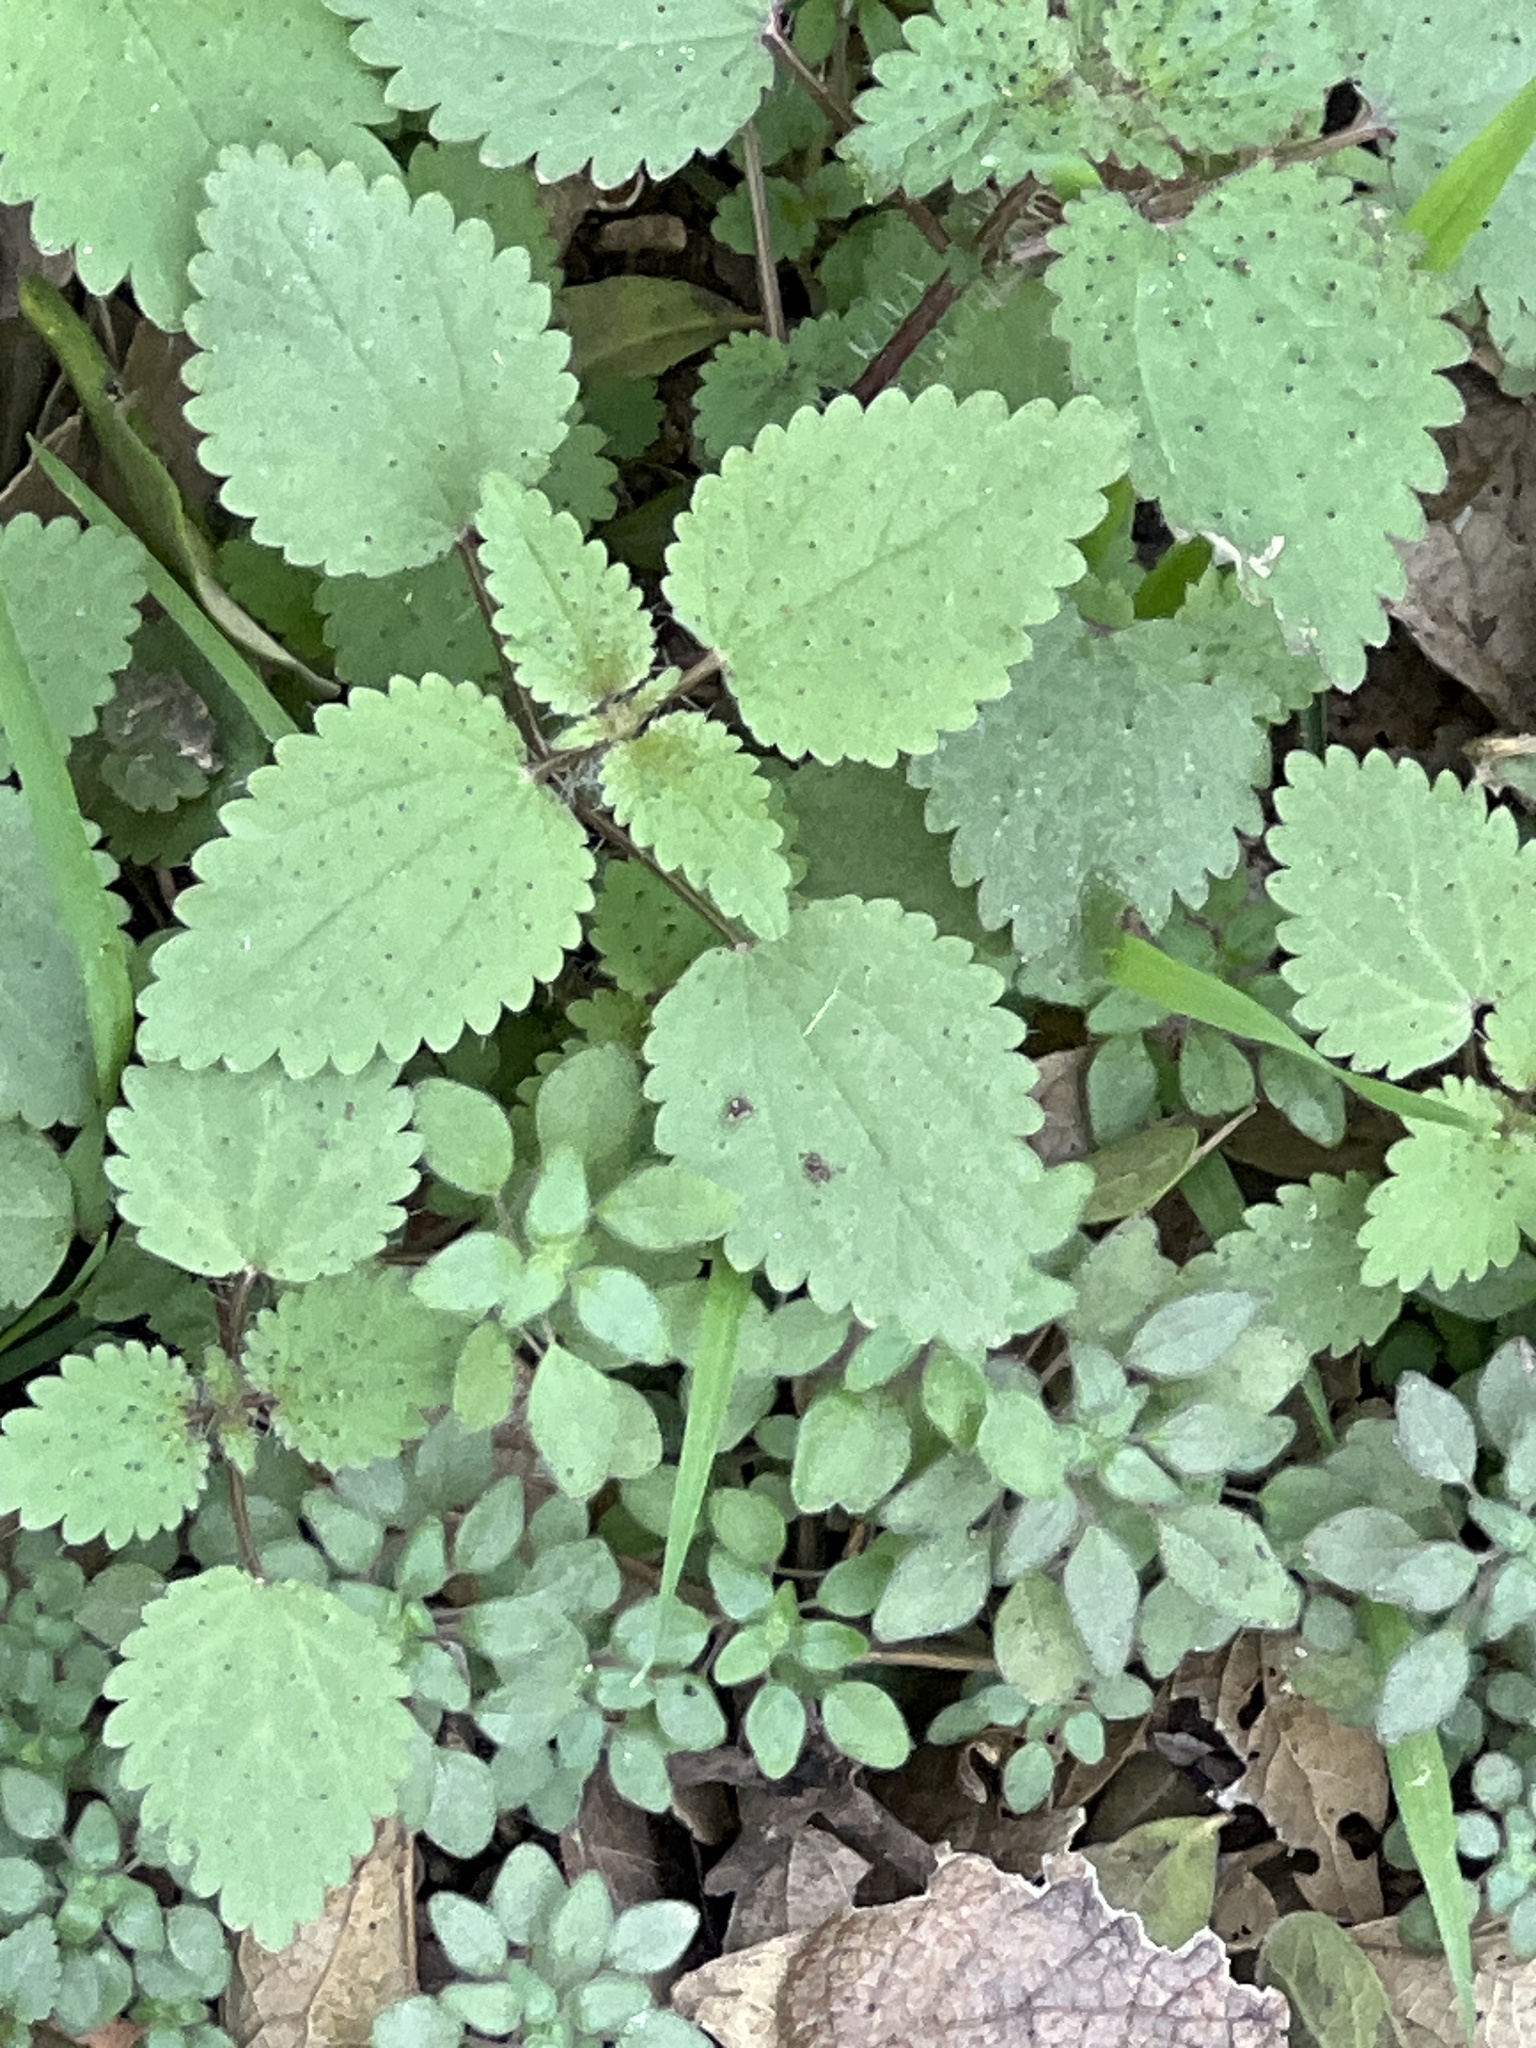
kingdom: Plantae
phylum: Tracheophyta
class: Magnoliopsida
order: Rosales
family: Urticaceae
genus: Urtica
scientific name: Urtica chamaedryoides
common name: Heart-leaf nettle
